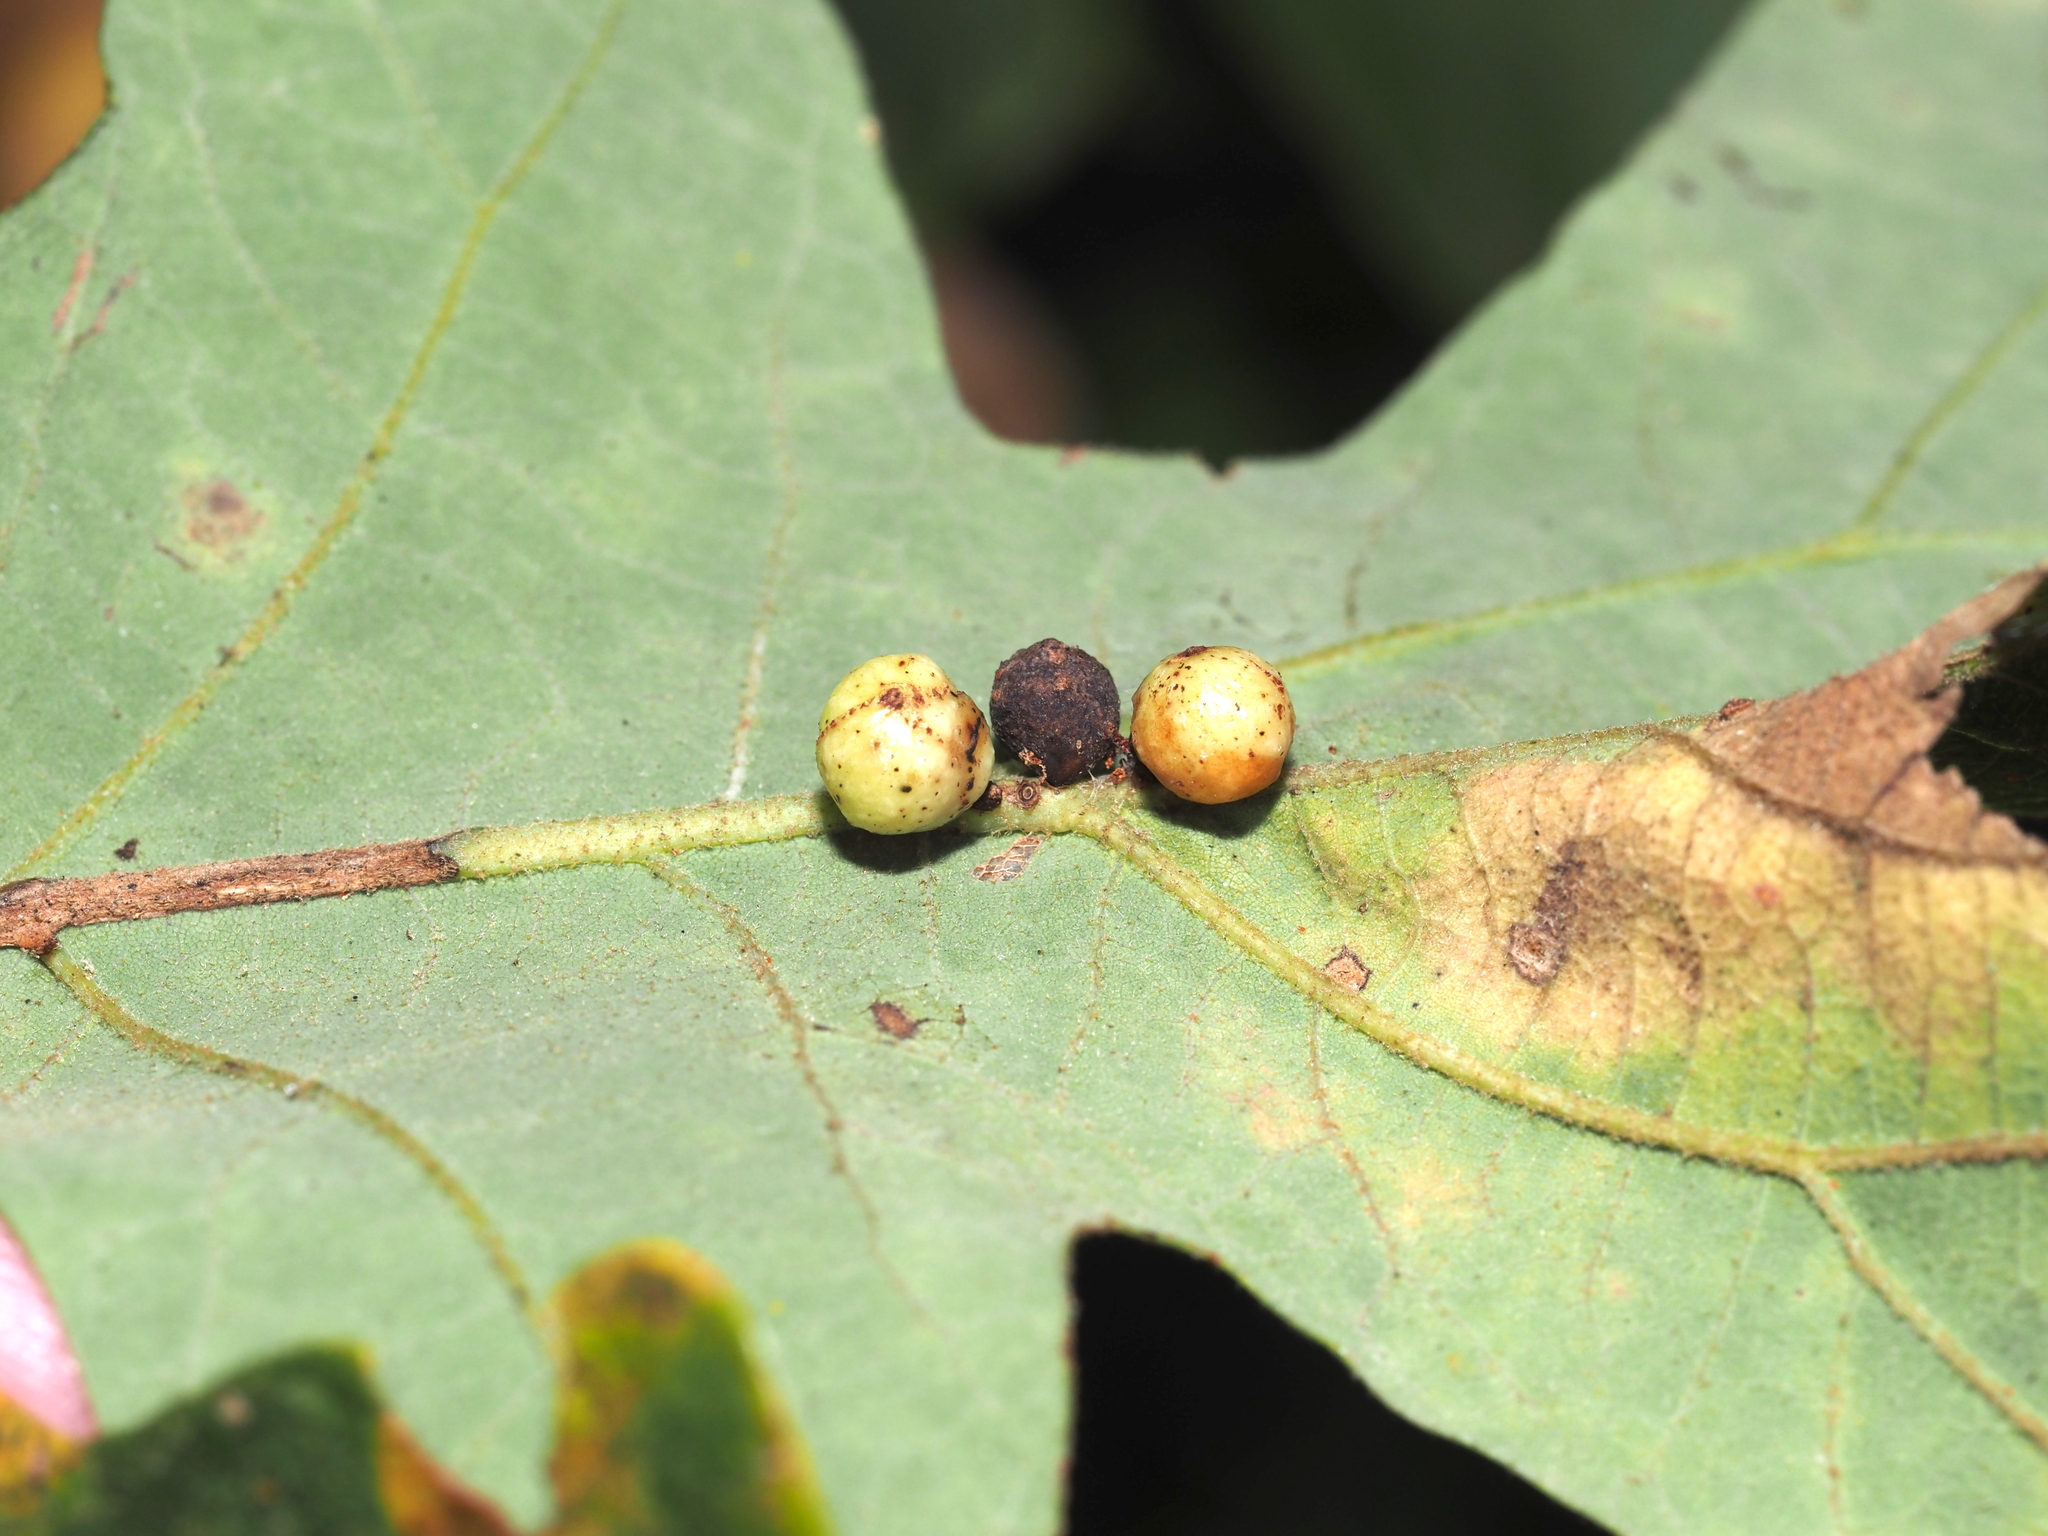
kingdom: Animalia
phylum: Arthropoda
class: Insecta
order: Hymenoptera
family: Cynipidae
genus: Andricus
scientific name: Andricus
